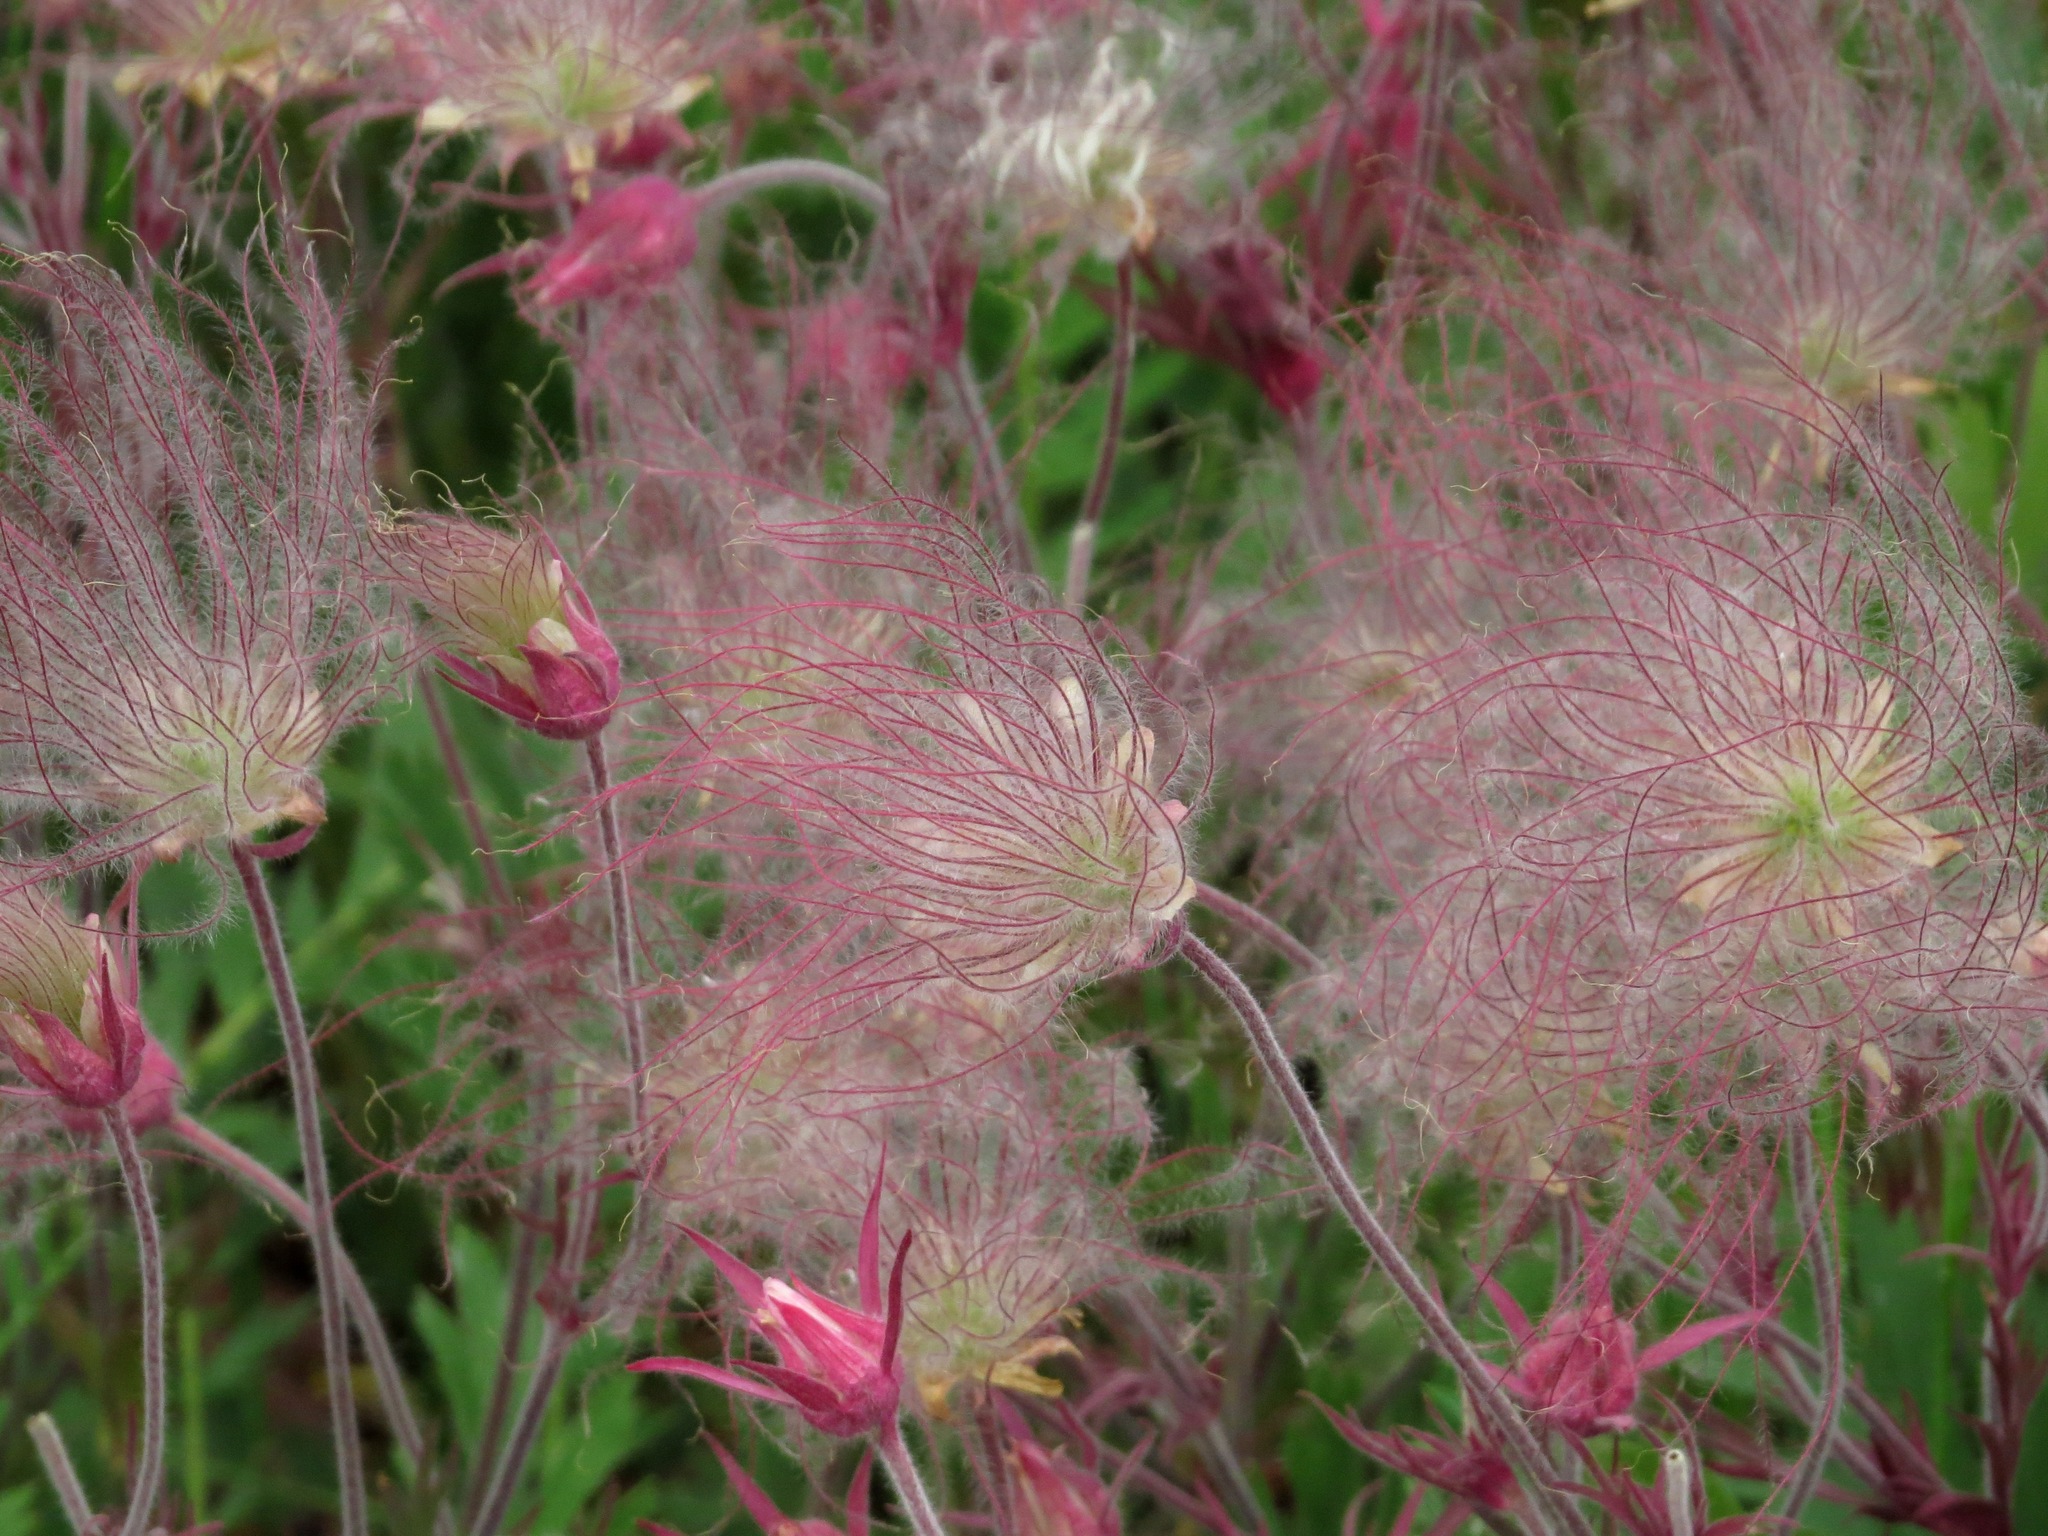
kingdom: Plantae
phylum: Tracheophyta
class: Magnoliopsida
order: Rosales
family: Rosaceae
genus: Geum
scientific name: Geum triflorum
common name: Old man's whiskers
